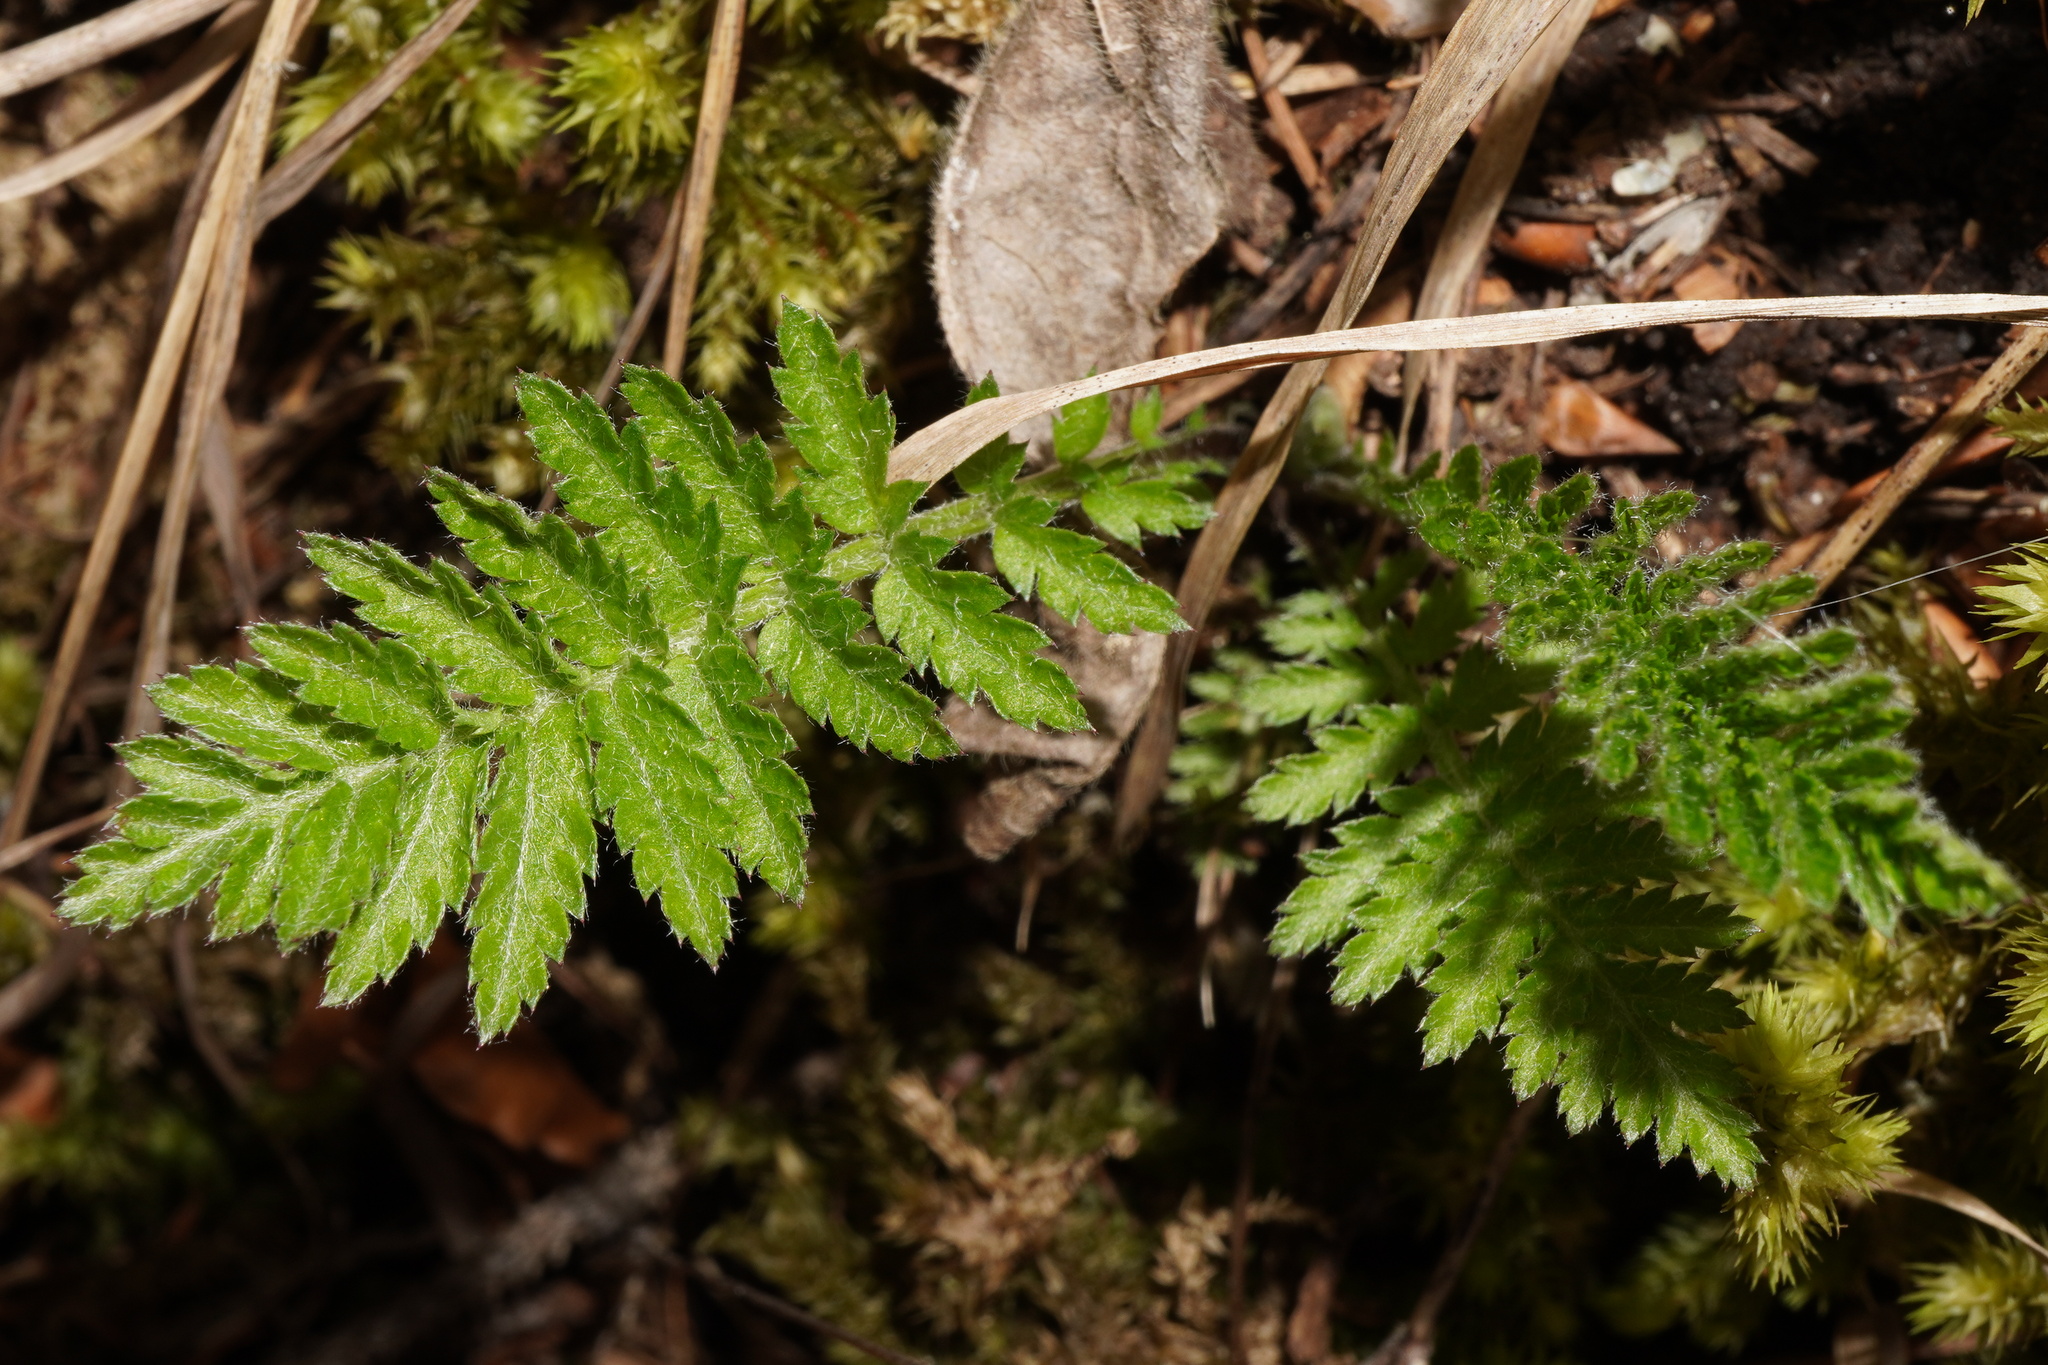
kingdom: Plantae
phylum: Tracheophyta
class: Magnoliopsida
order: Asterales
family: Asteraceae
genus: Tanacetum
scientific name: Tanacetum corymbosum
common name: Scentless feverfew
